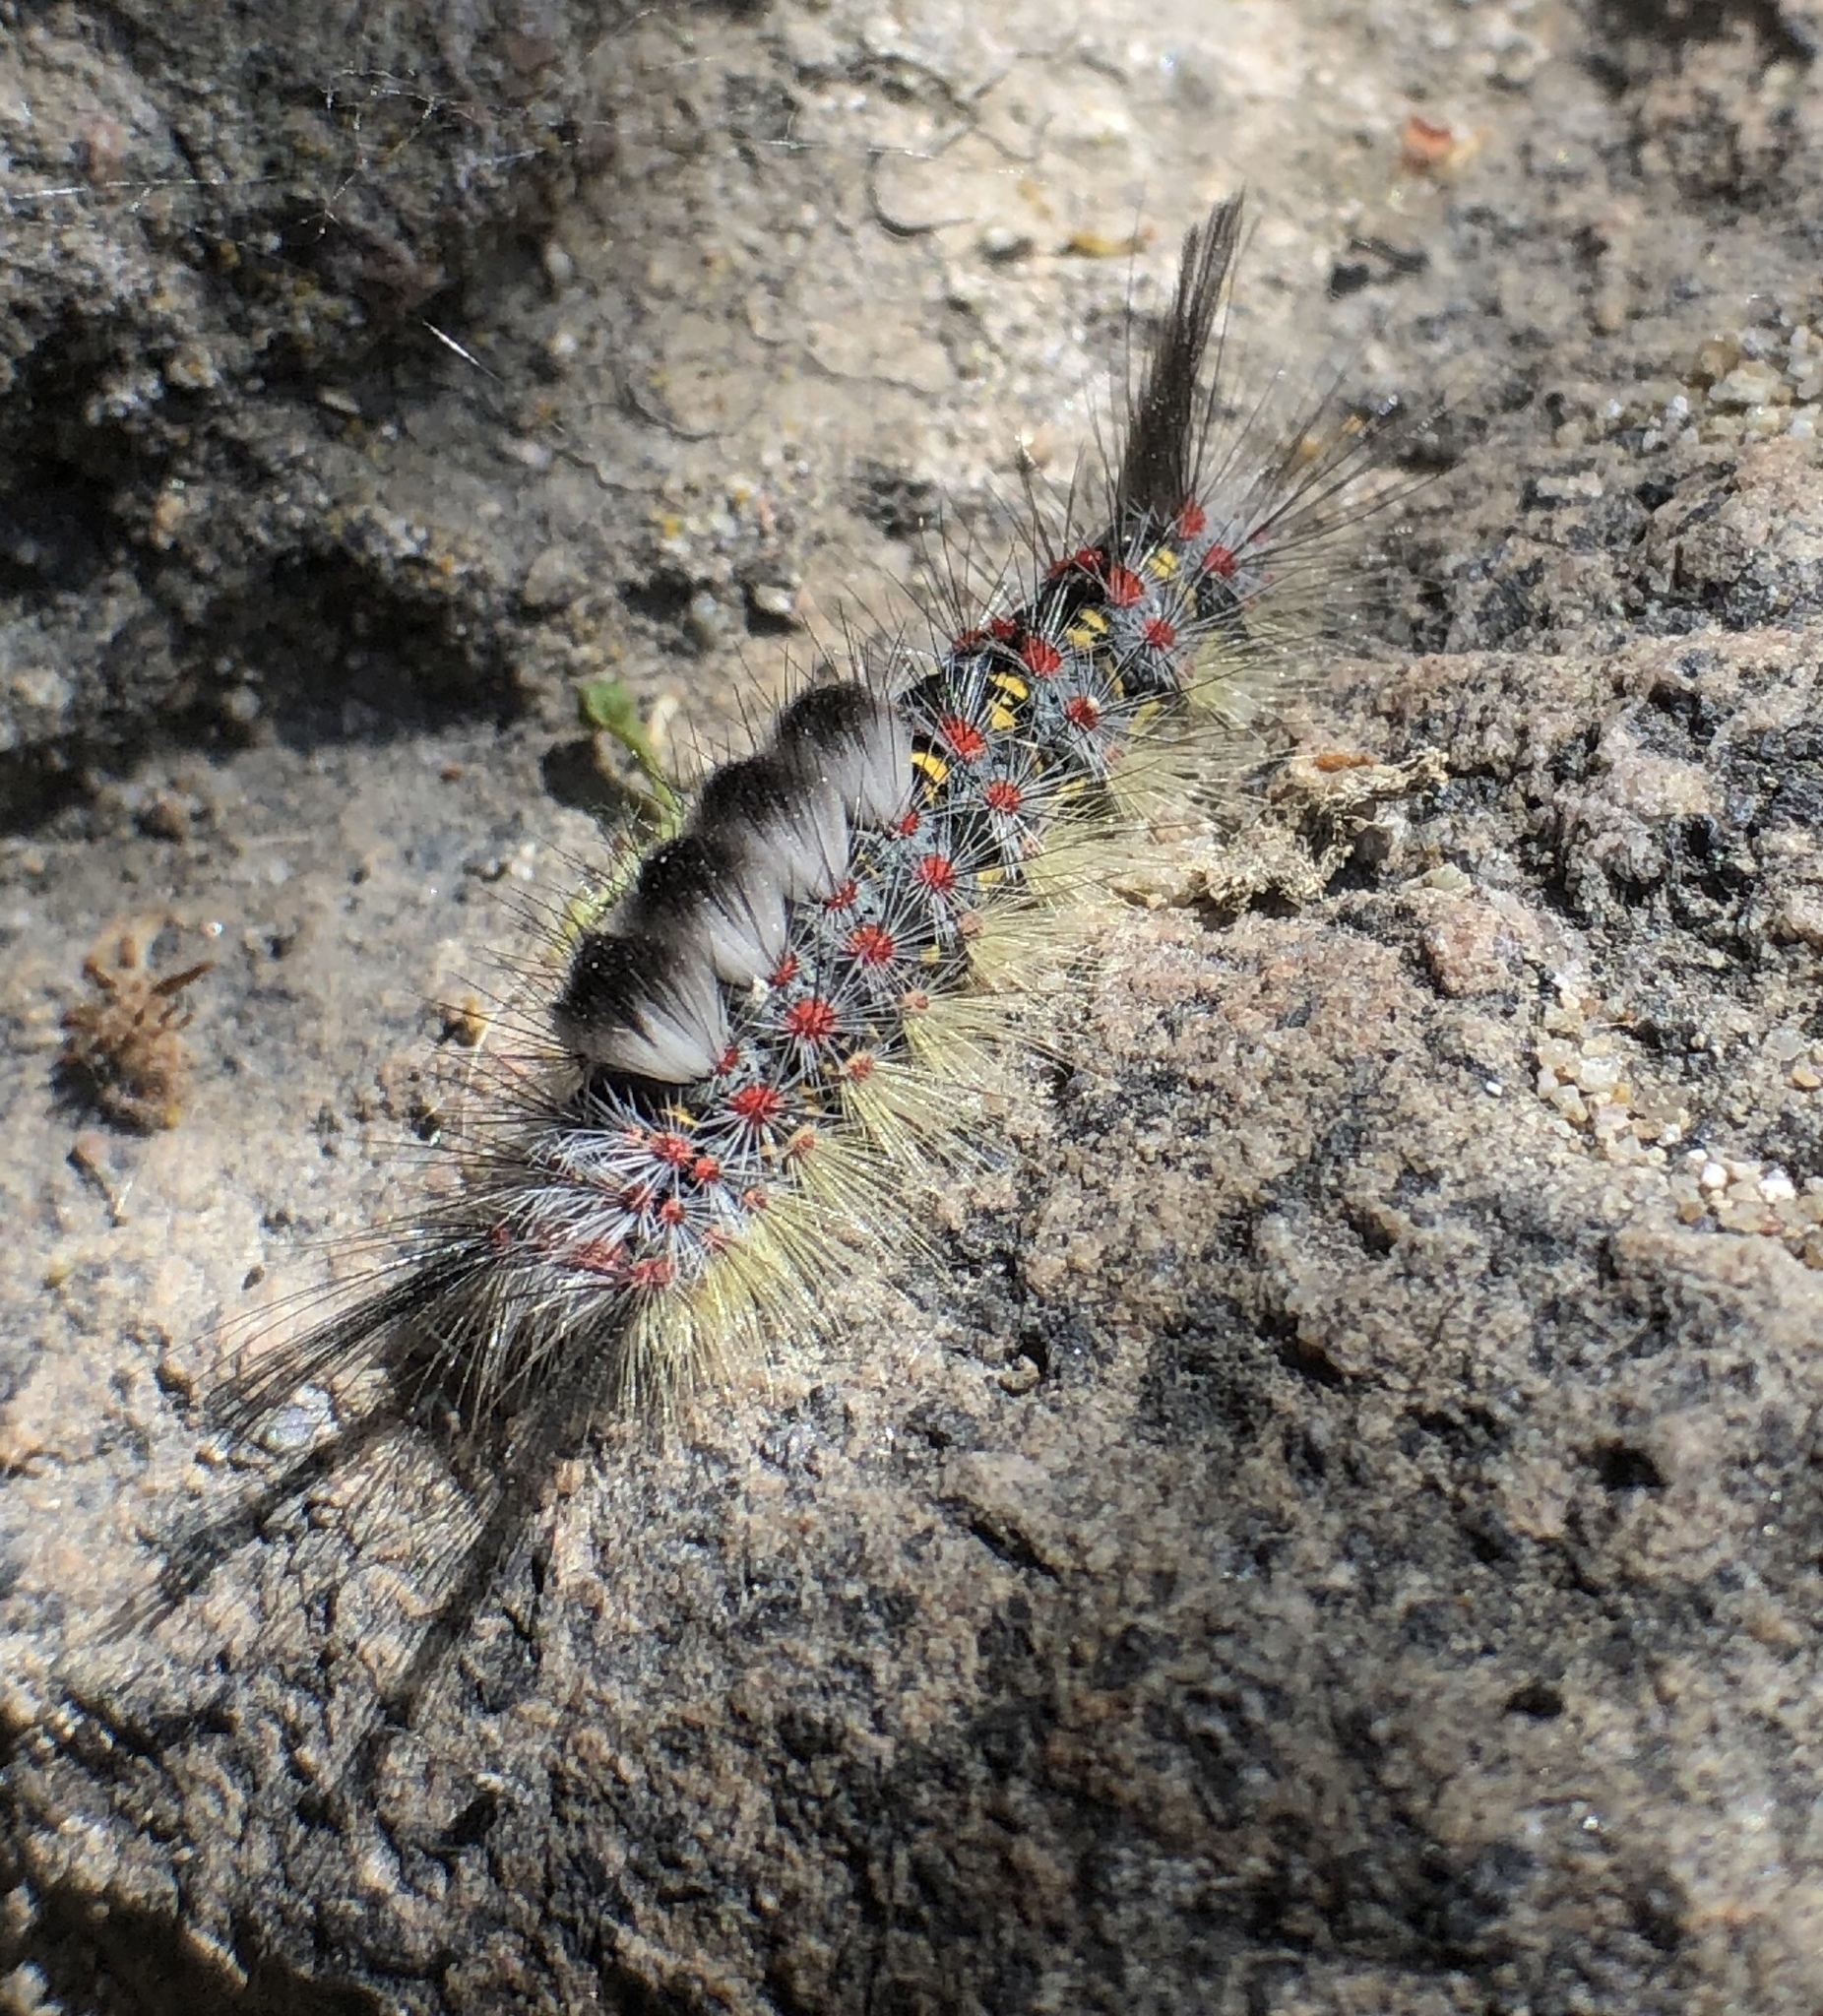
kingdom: Animalia
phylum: Arthropoda
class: Insecta
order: Lepidoptera
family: Erebidae
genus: Orgyia
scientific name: Orgyia vetusta
